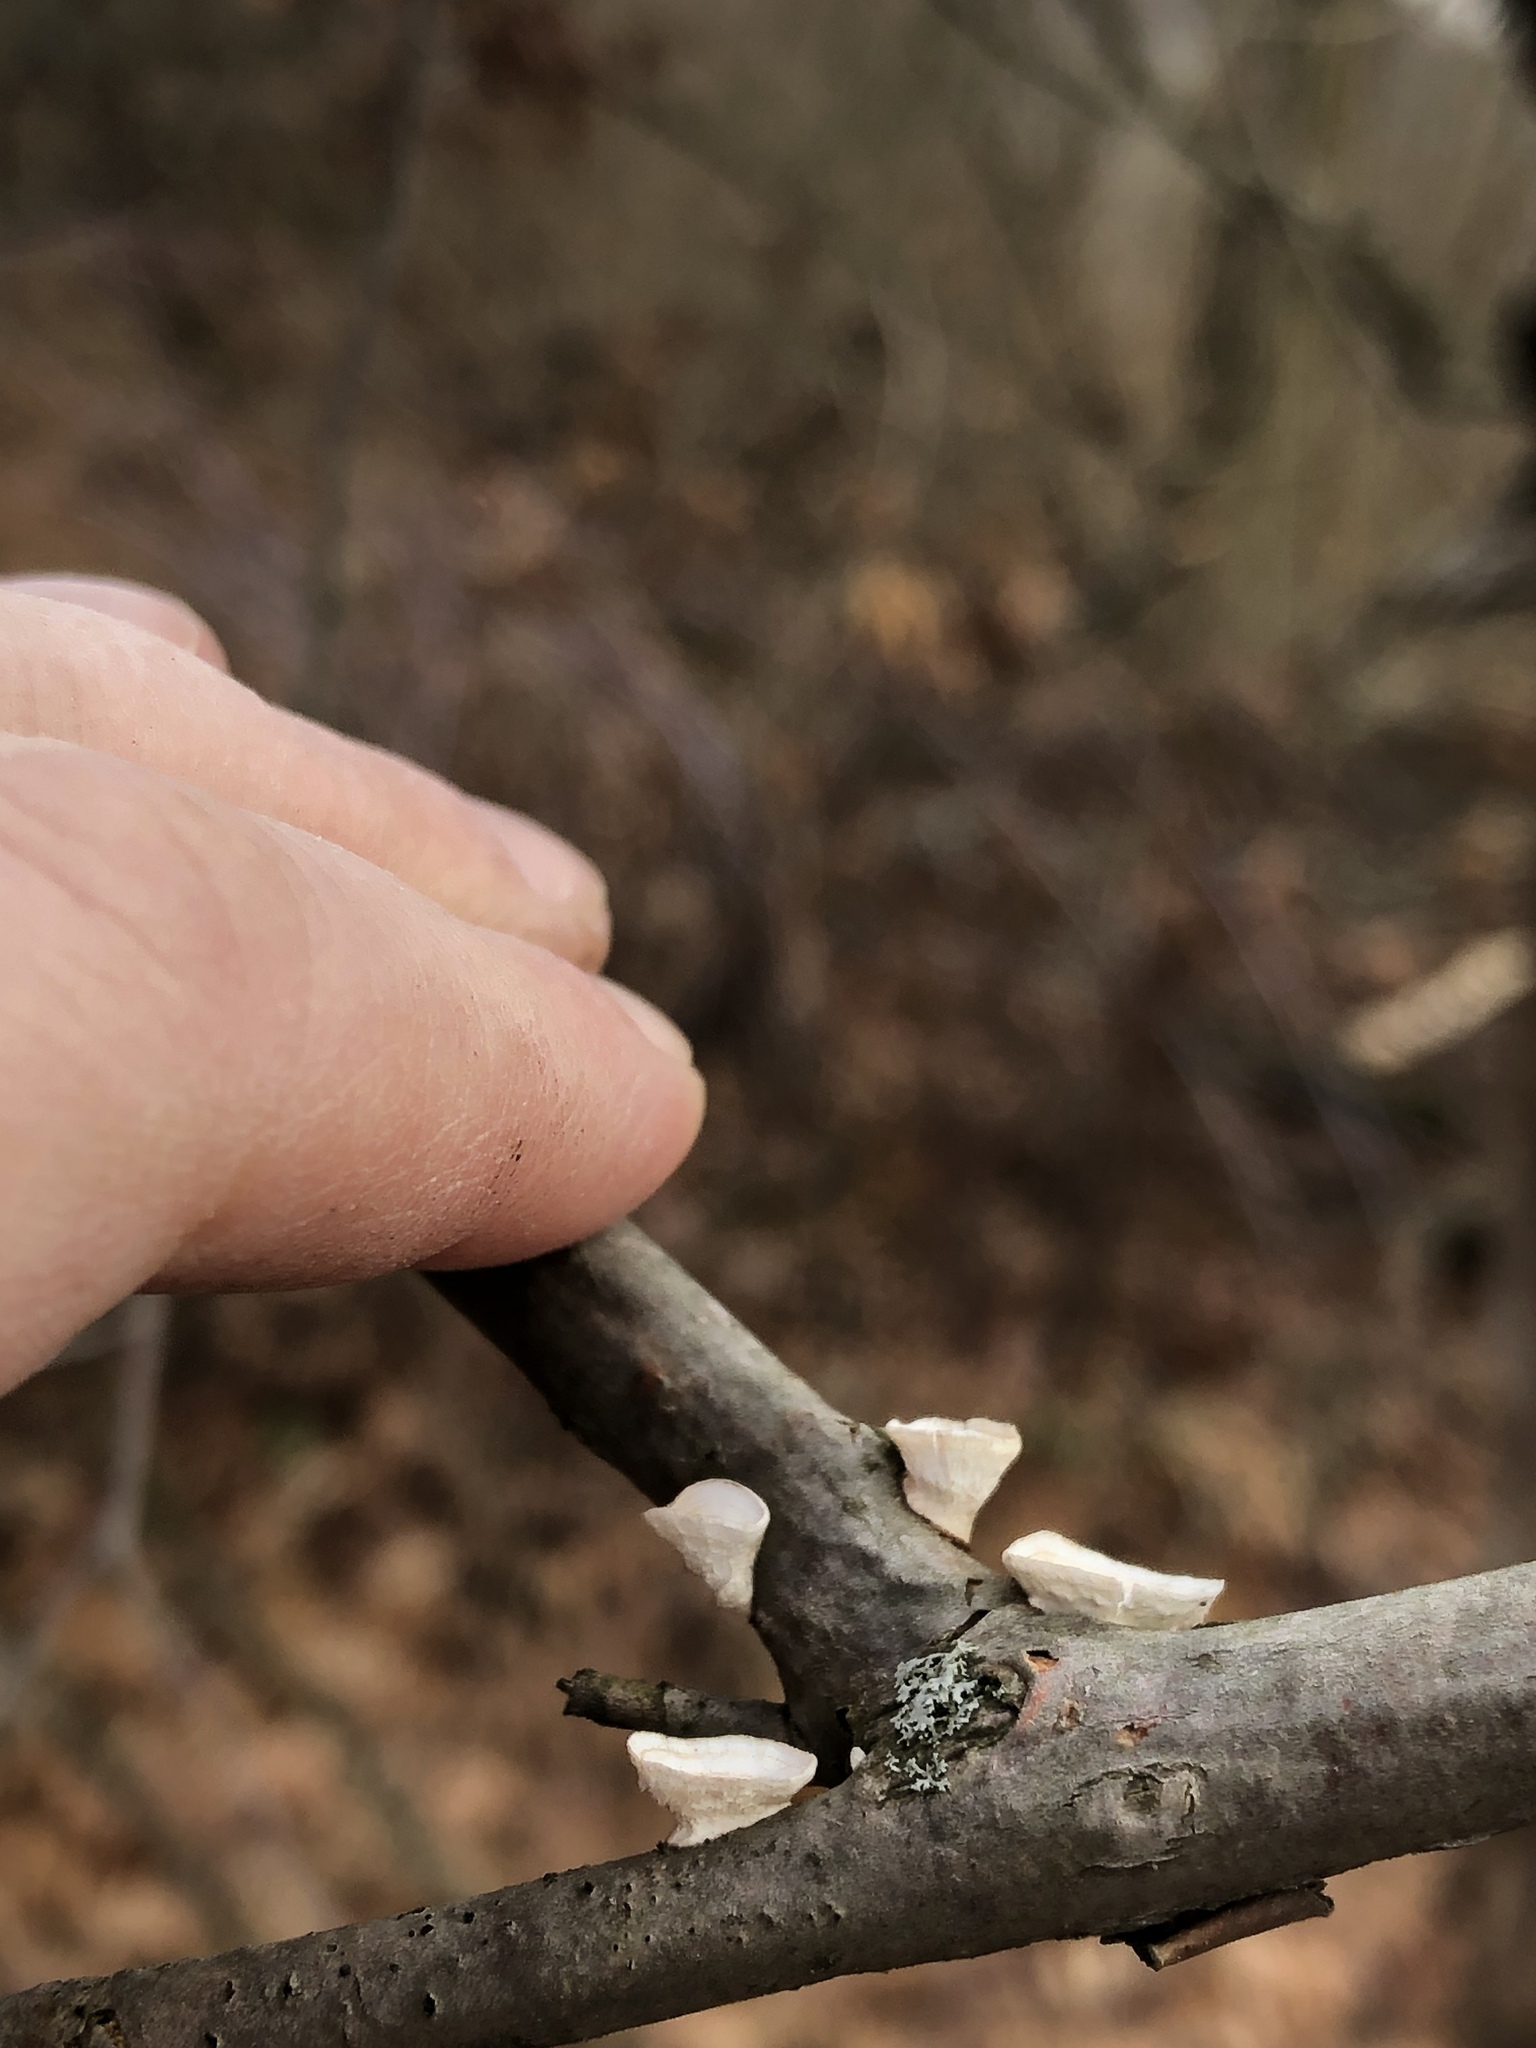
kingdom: Fungi
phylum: Basidiomycota
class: Agaricomycetes
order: Polyporales
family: Polyporaceae
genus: Poronidulus
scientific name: Poronidulus conchifer
